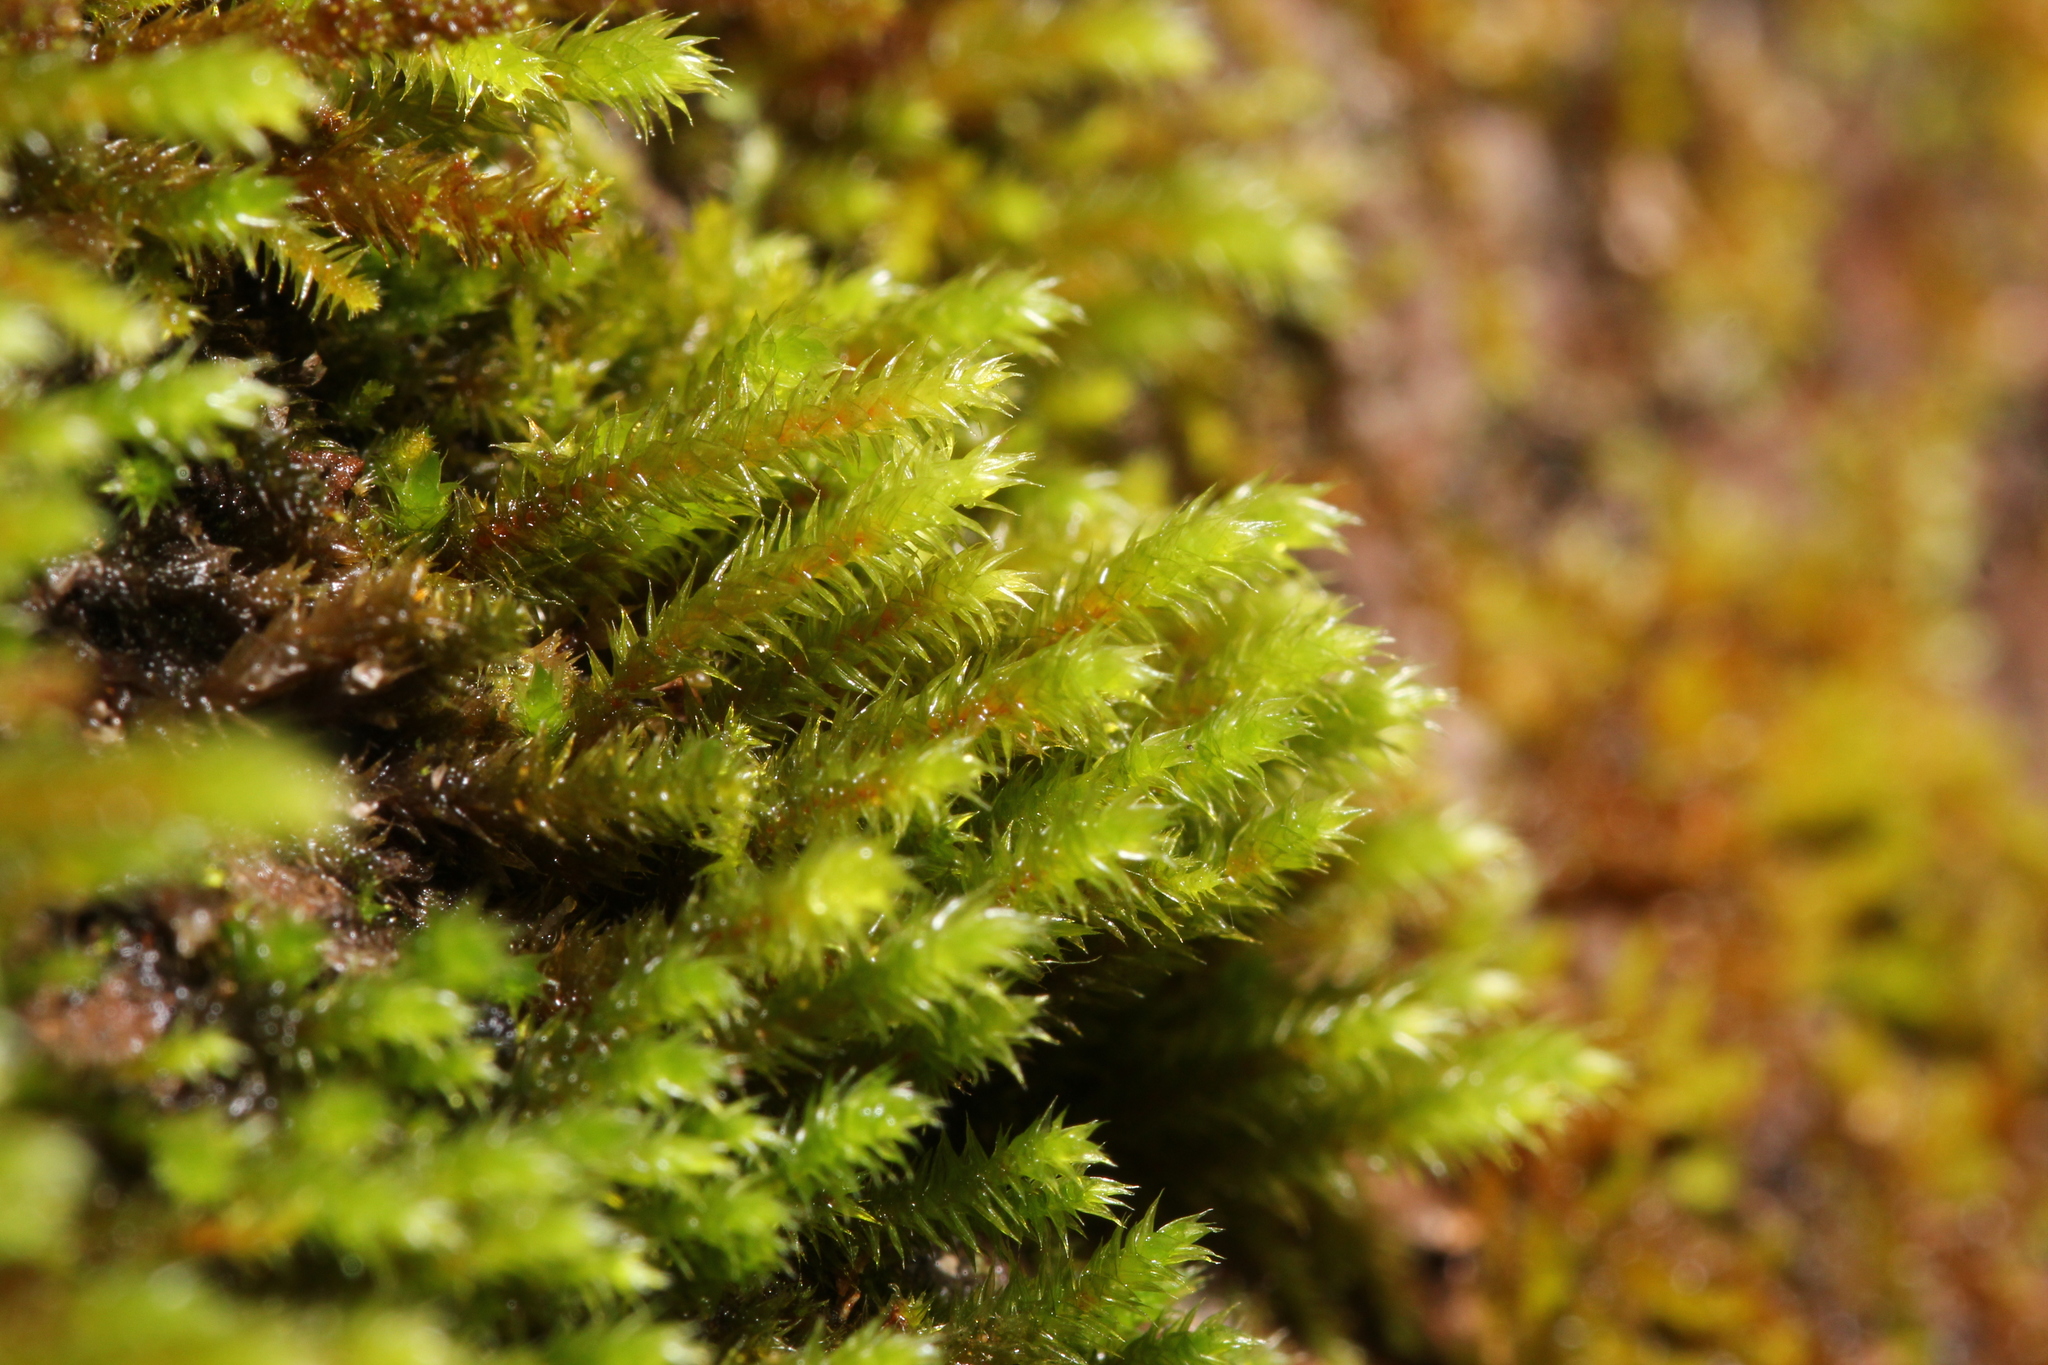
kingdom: Plantae
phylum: Bryophyta
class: Bryopsida
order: Hypnales
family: Leucodontaceae
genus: Leucodon
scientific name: Leucodon sciuroides
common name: Squirrel-tail moss
